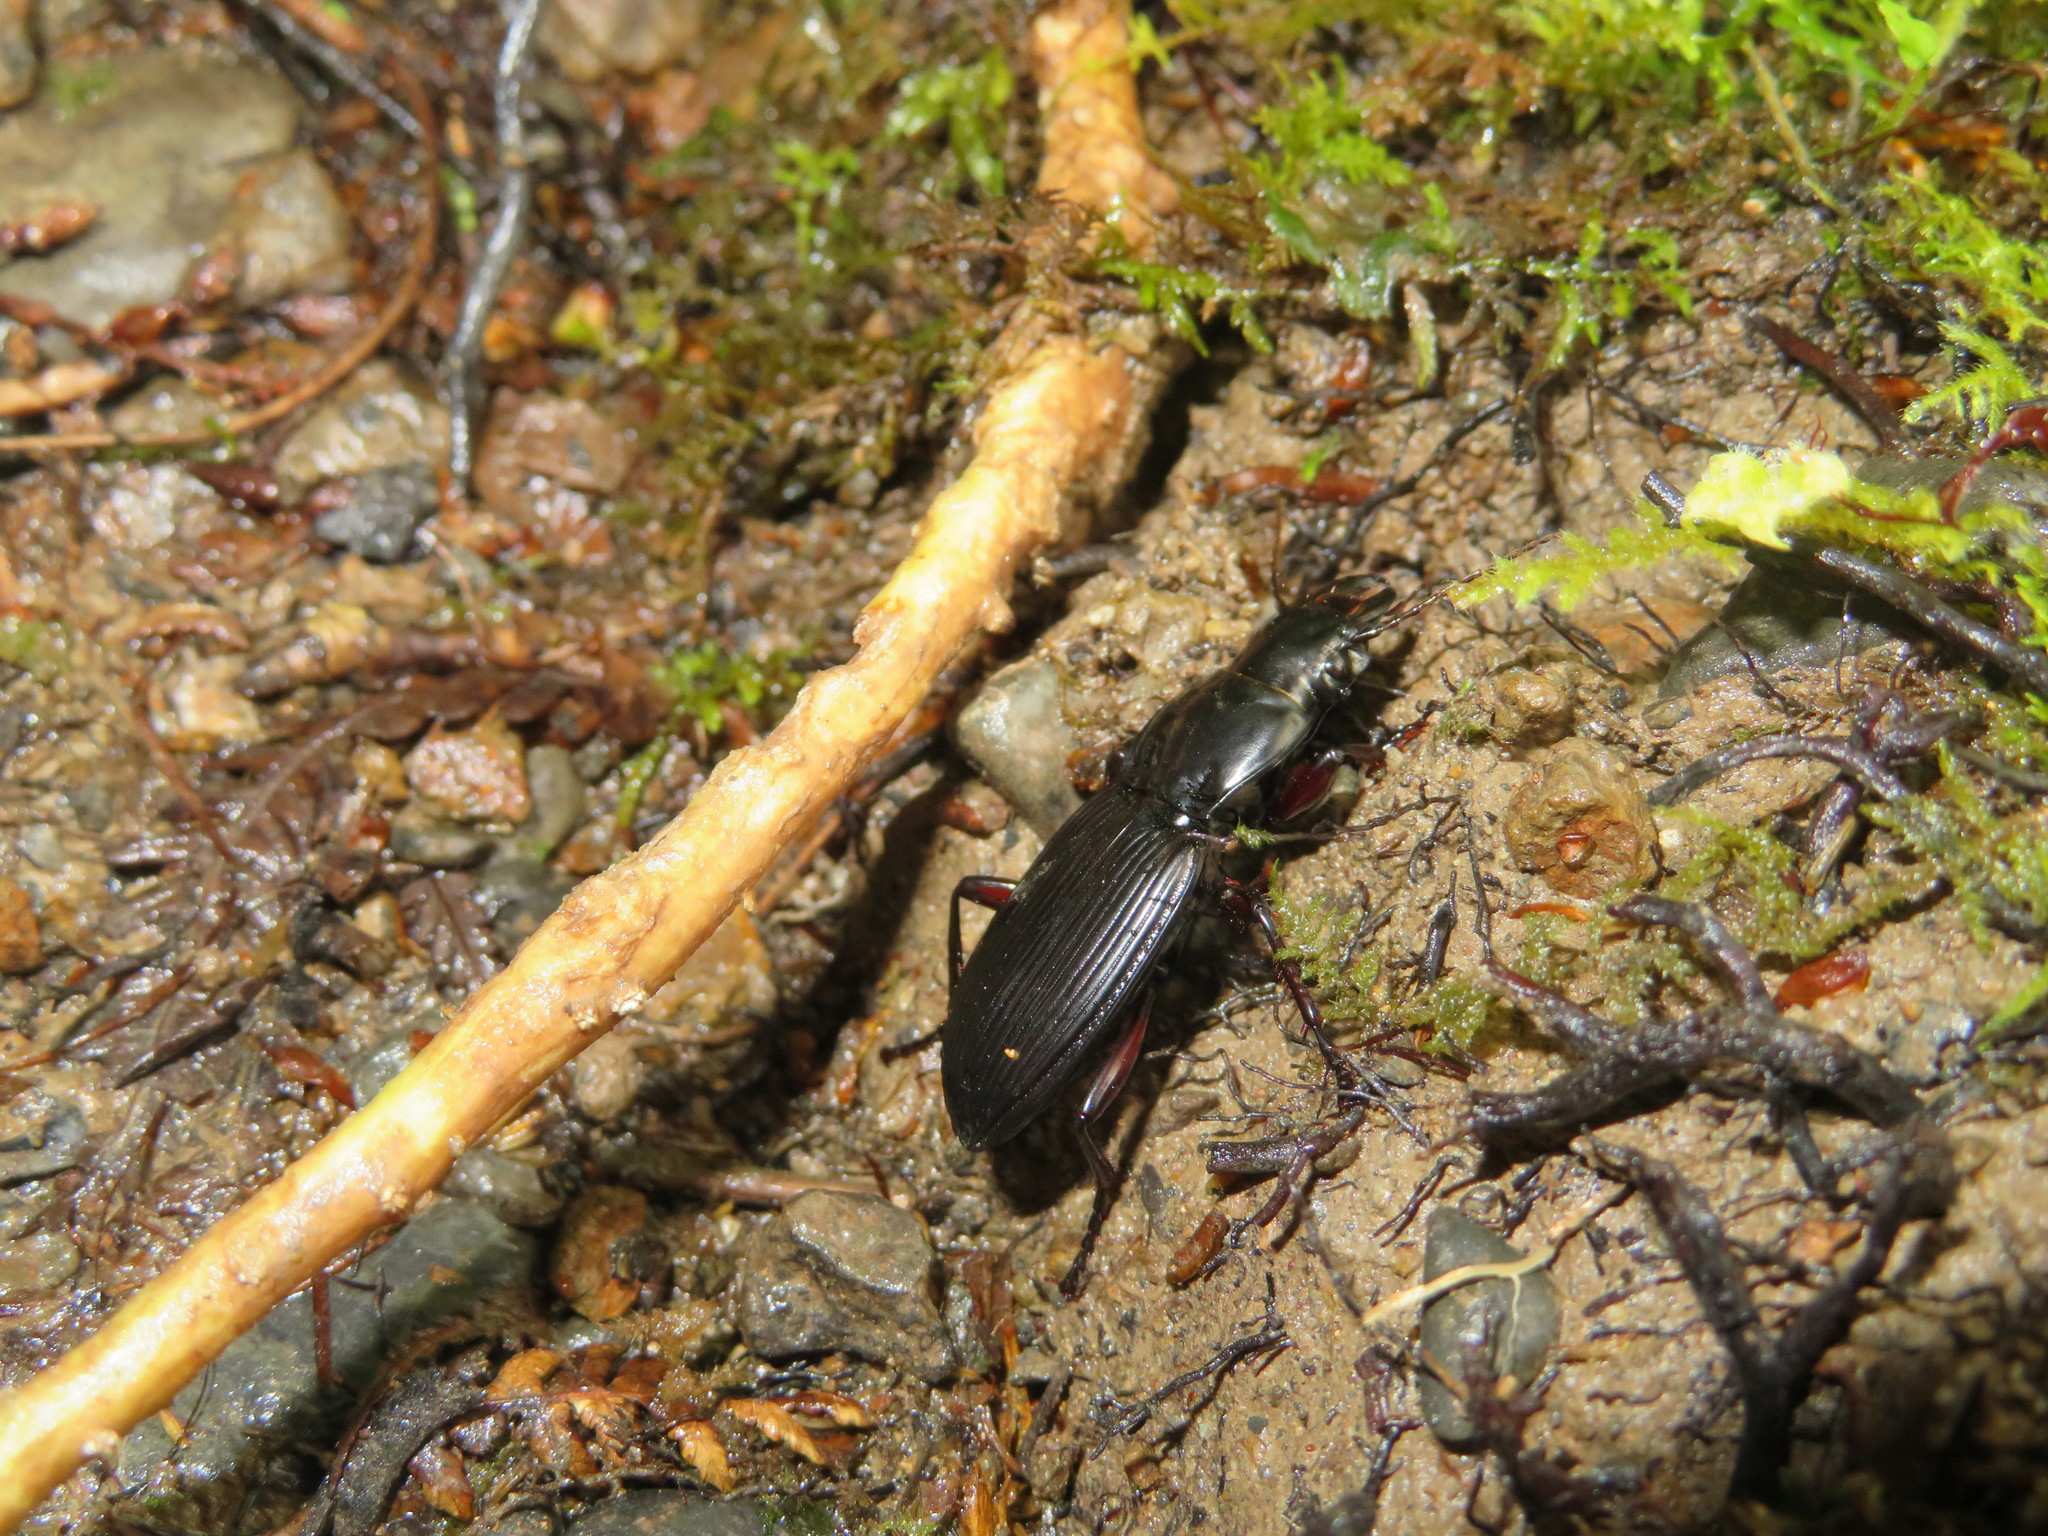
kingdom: Animalia
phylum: Arthropoda
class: Insecta
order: Coleoptera
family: Carabidae
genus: Plocamostethus
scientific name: Plocamostethus planiusculus
